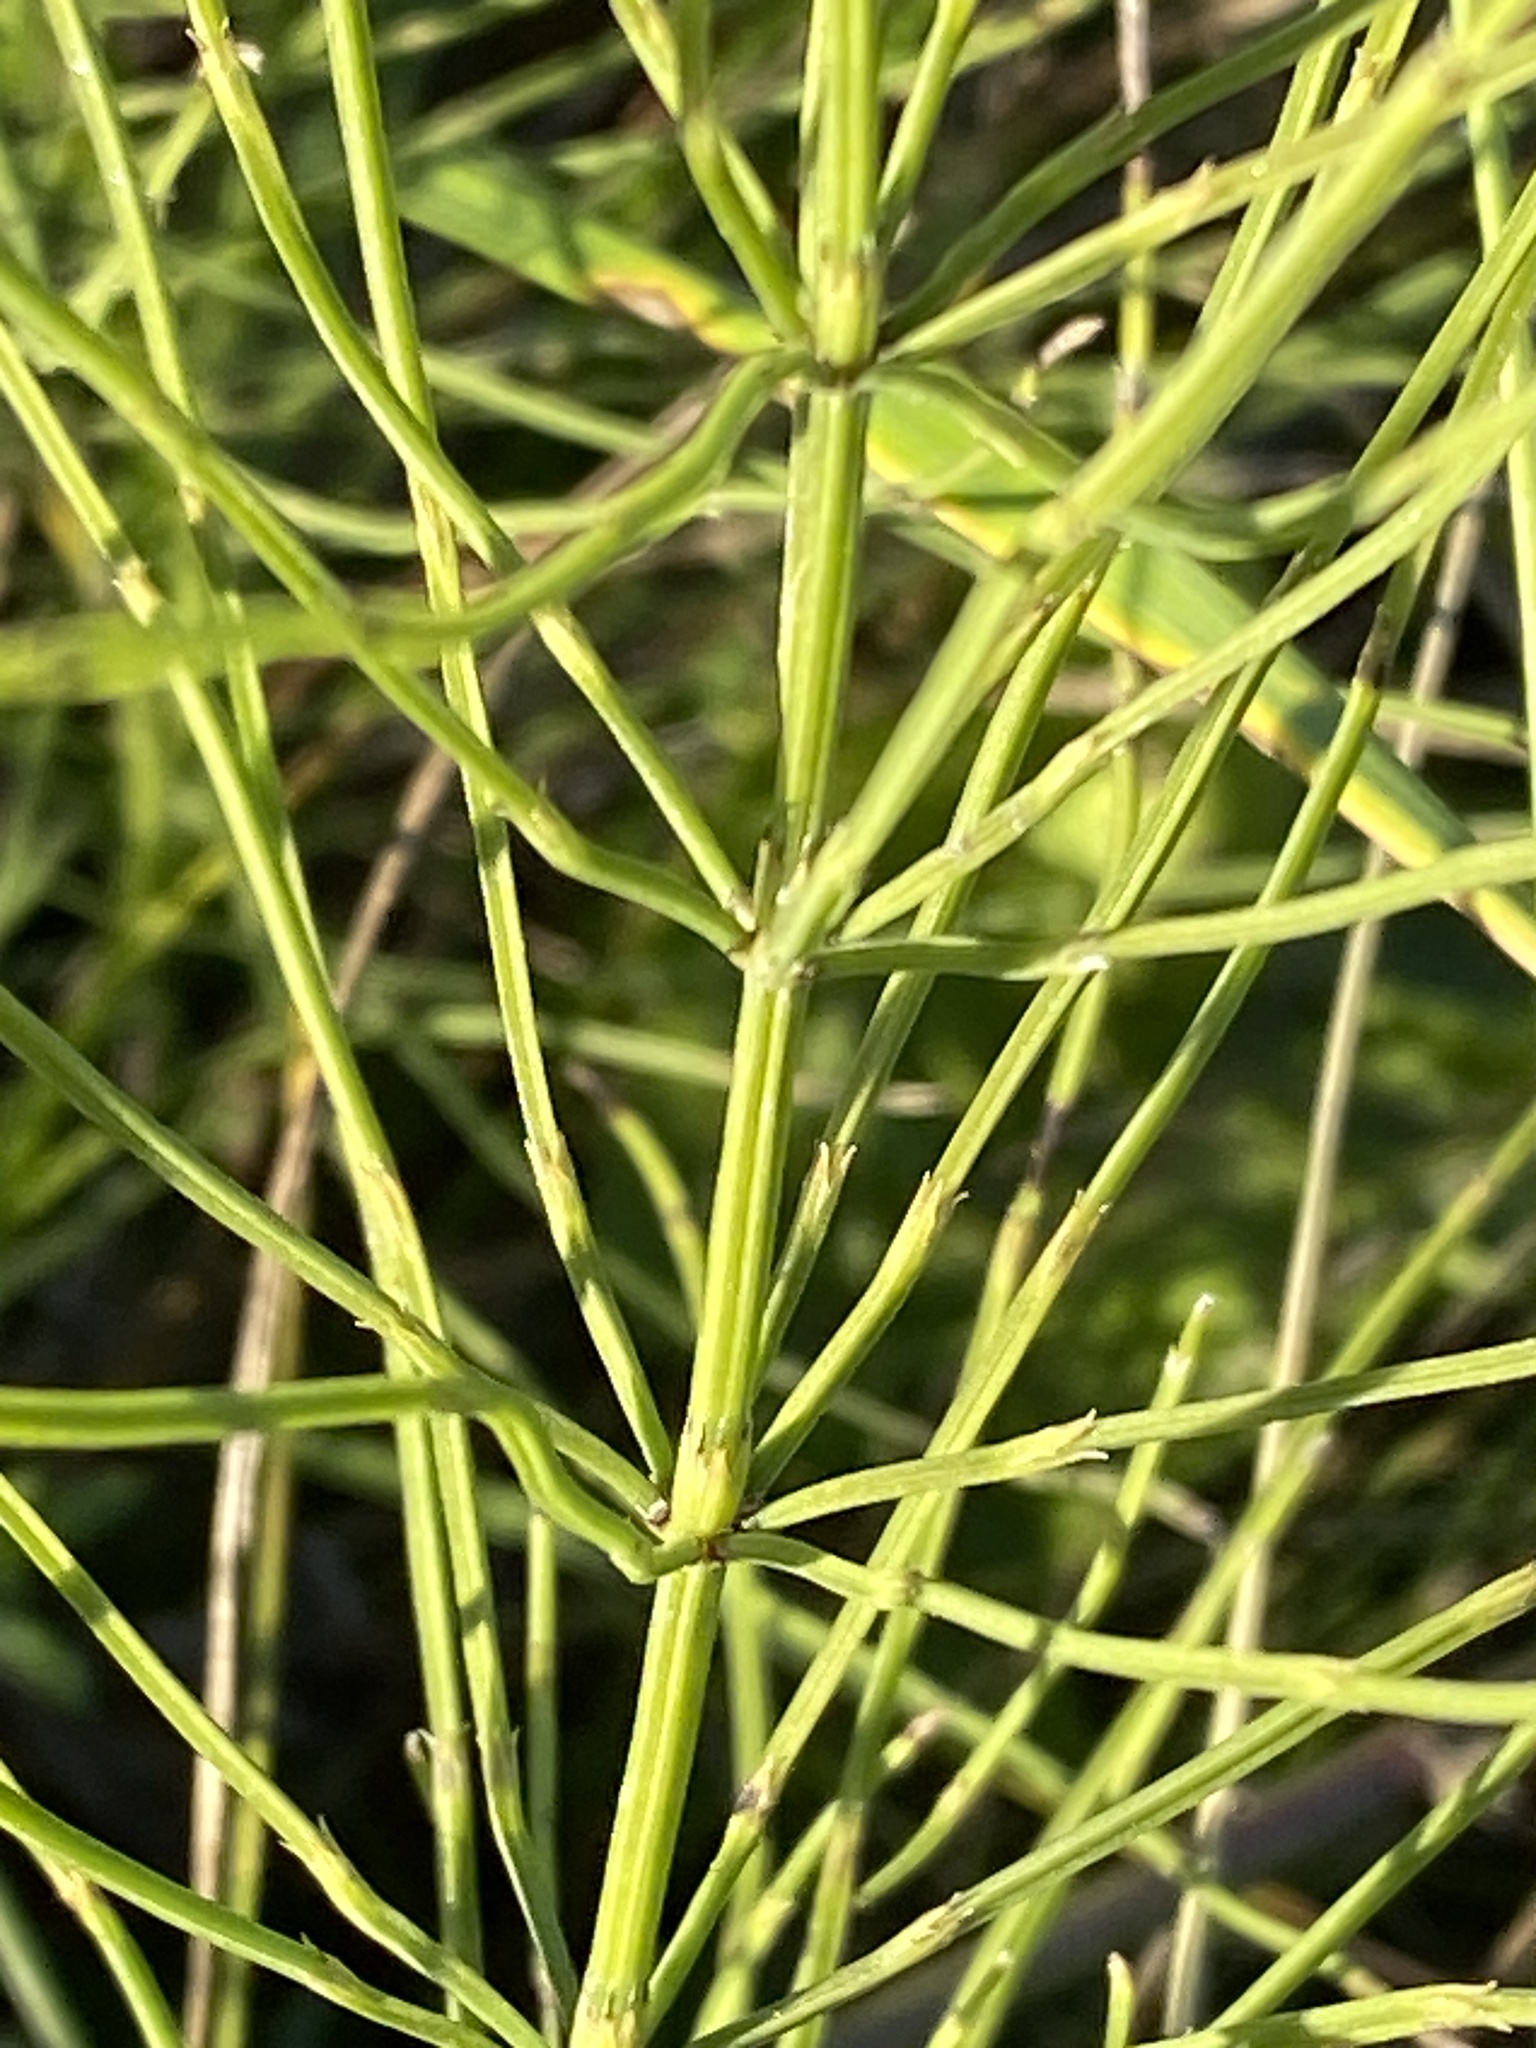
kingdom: Plantae
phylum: Tracheophyta
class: Polypodiopsida
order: Equisetales
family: Equisetaceae
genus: Equisetum
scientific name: Equisetum arvense
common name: Field horsetail
